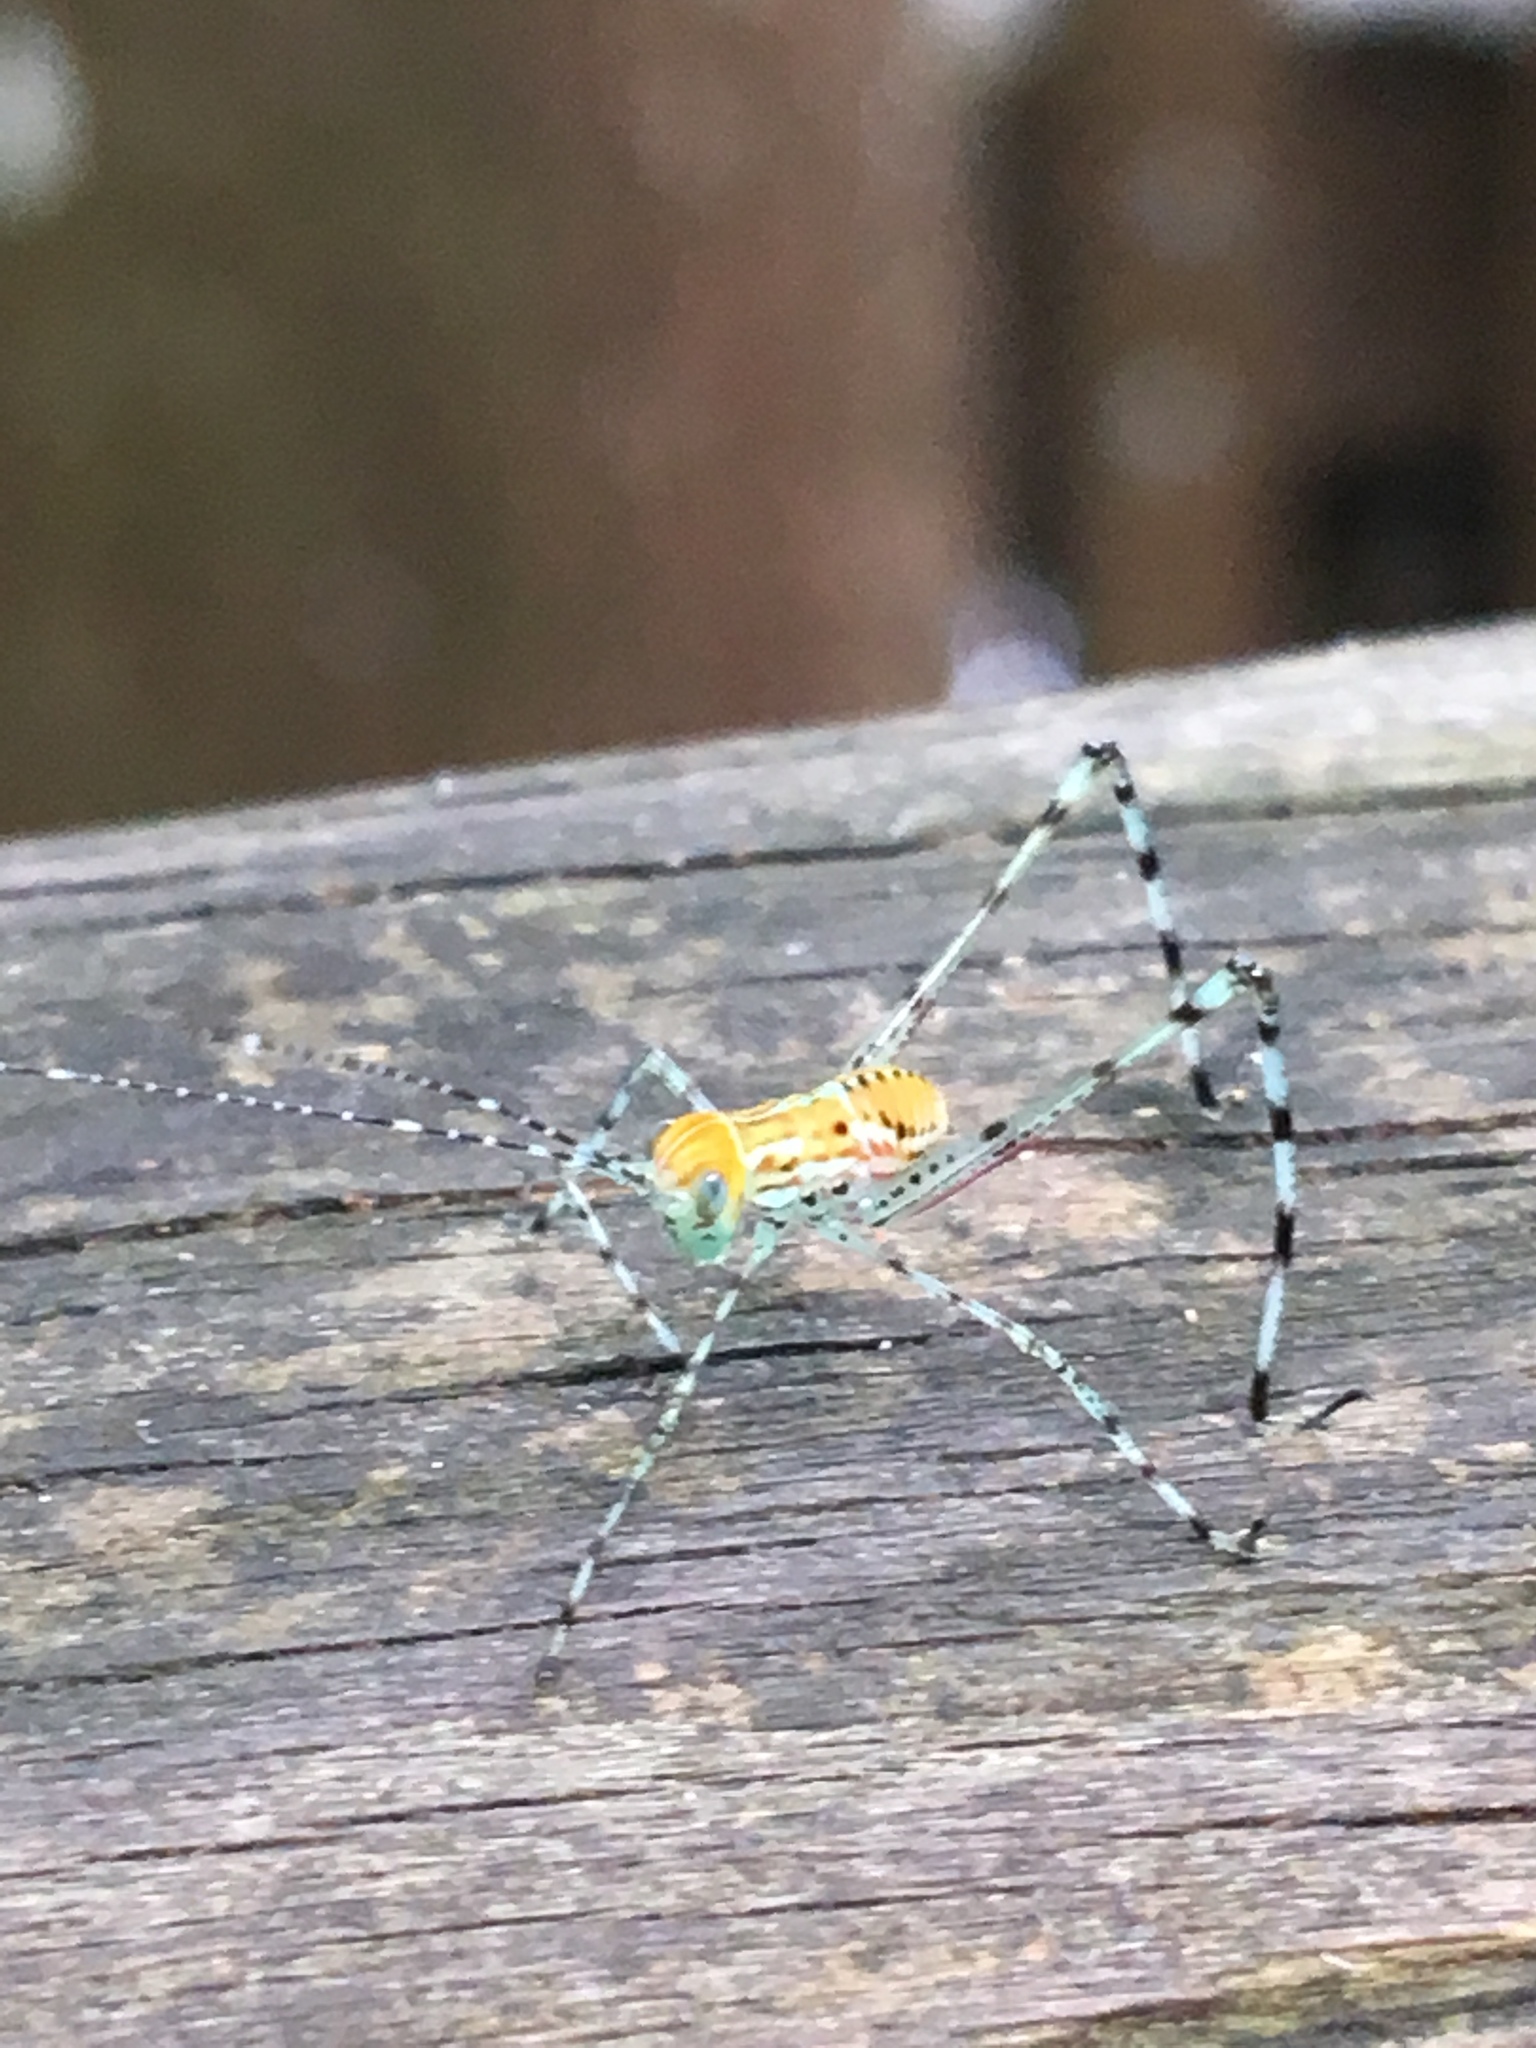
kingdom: Animalia
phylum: Arthropoda
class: Insecta
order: Orthoptera
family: Tettigoniidae
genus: Stilpnochlora
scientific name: Stilpnochlora couloniana
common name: Giant katydid
